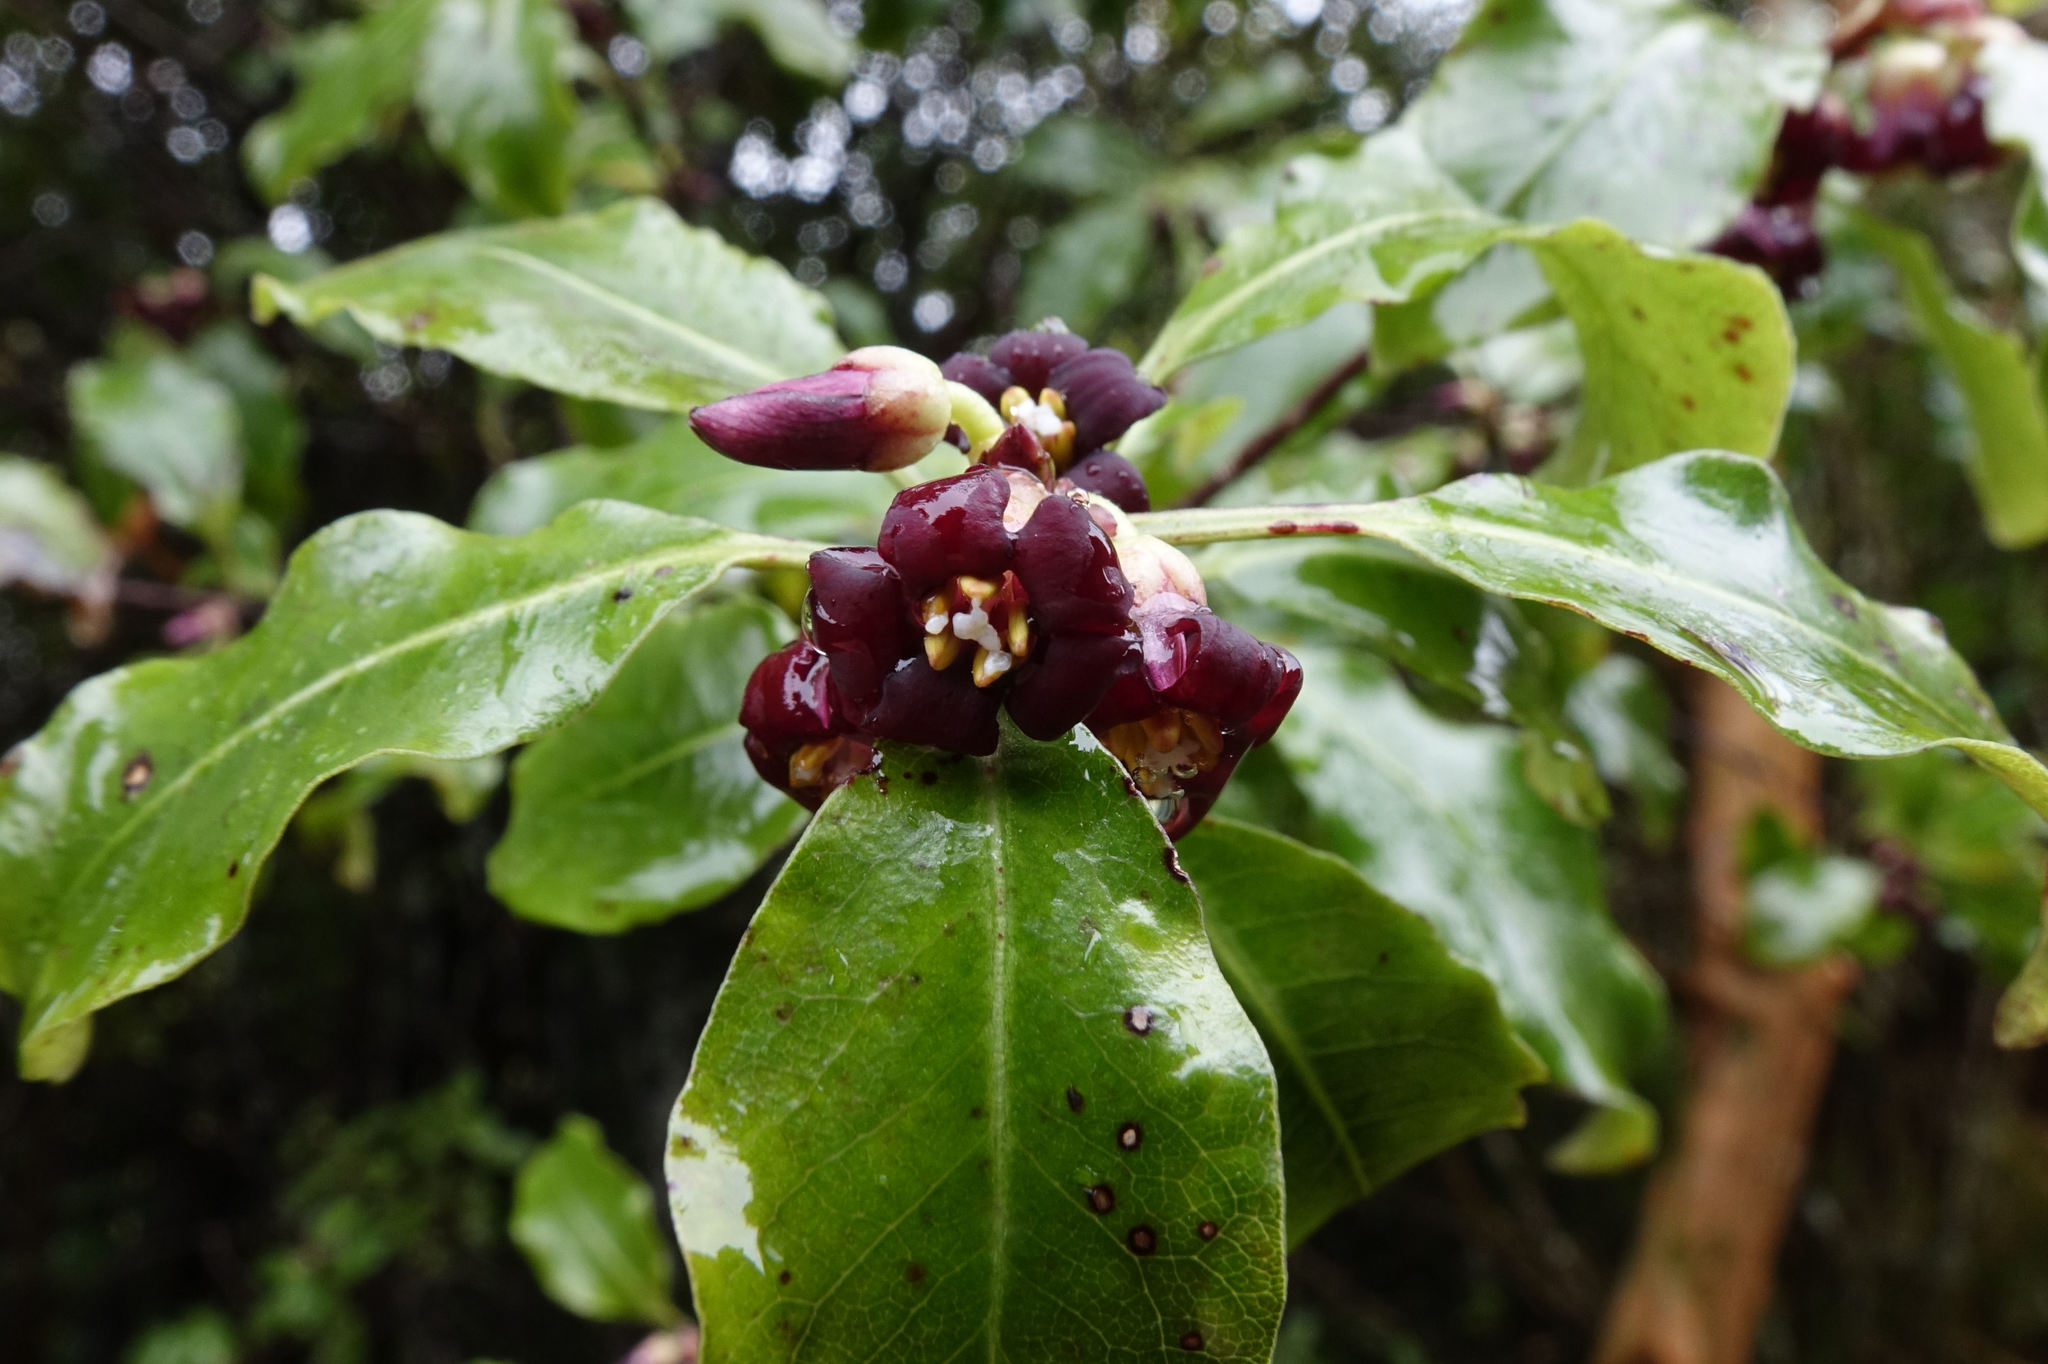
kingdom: Plantae
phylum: Tracheophyta
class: Magnoliopsida
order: Apiales
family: Pittosporaceae
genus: Pittosporum
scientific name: Pittosporum tenuifolium
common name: Kohuhu
